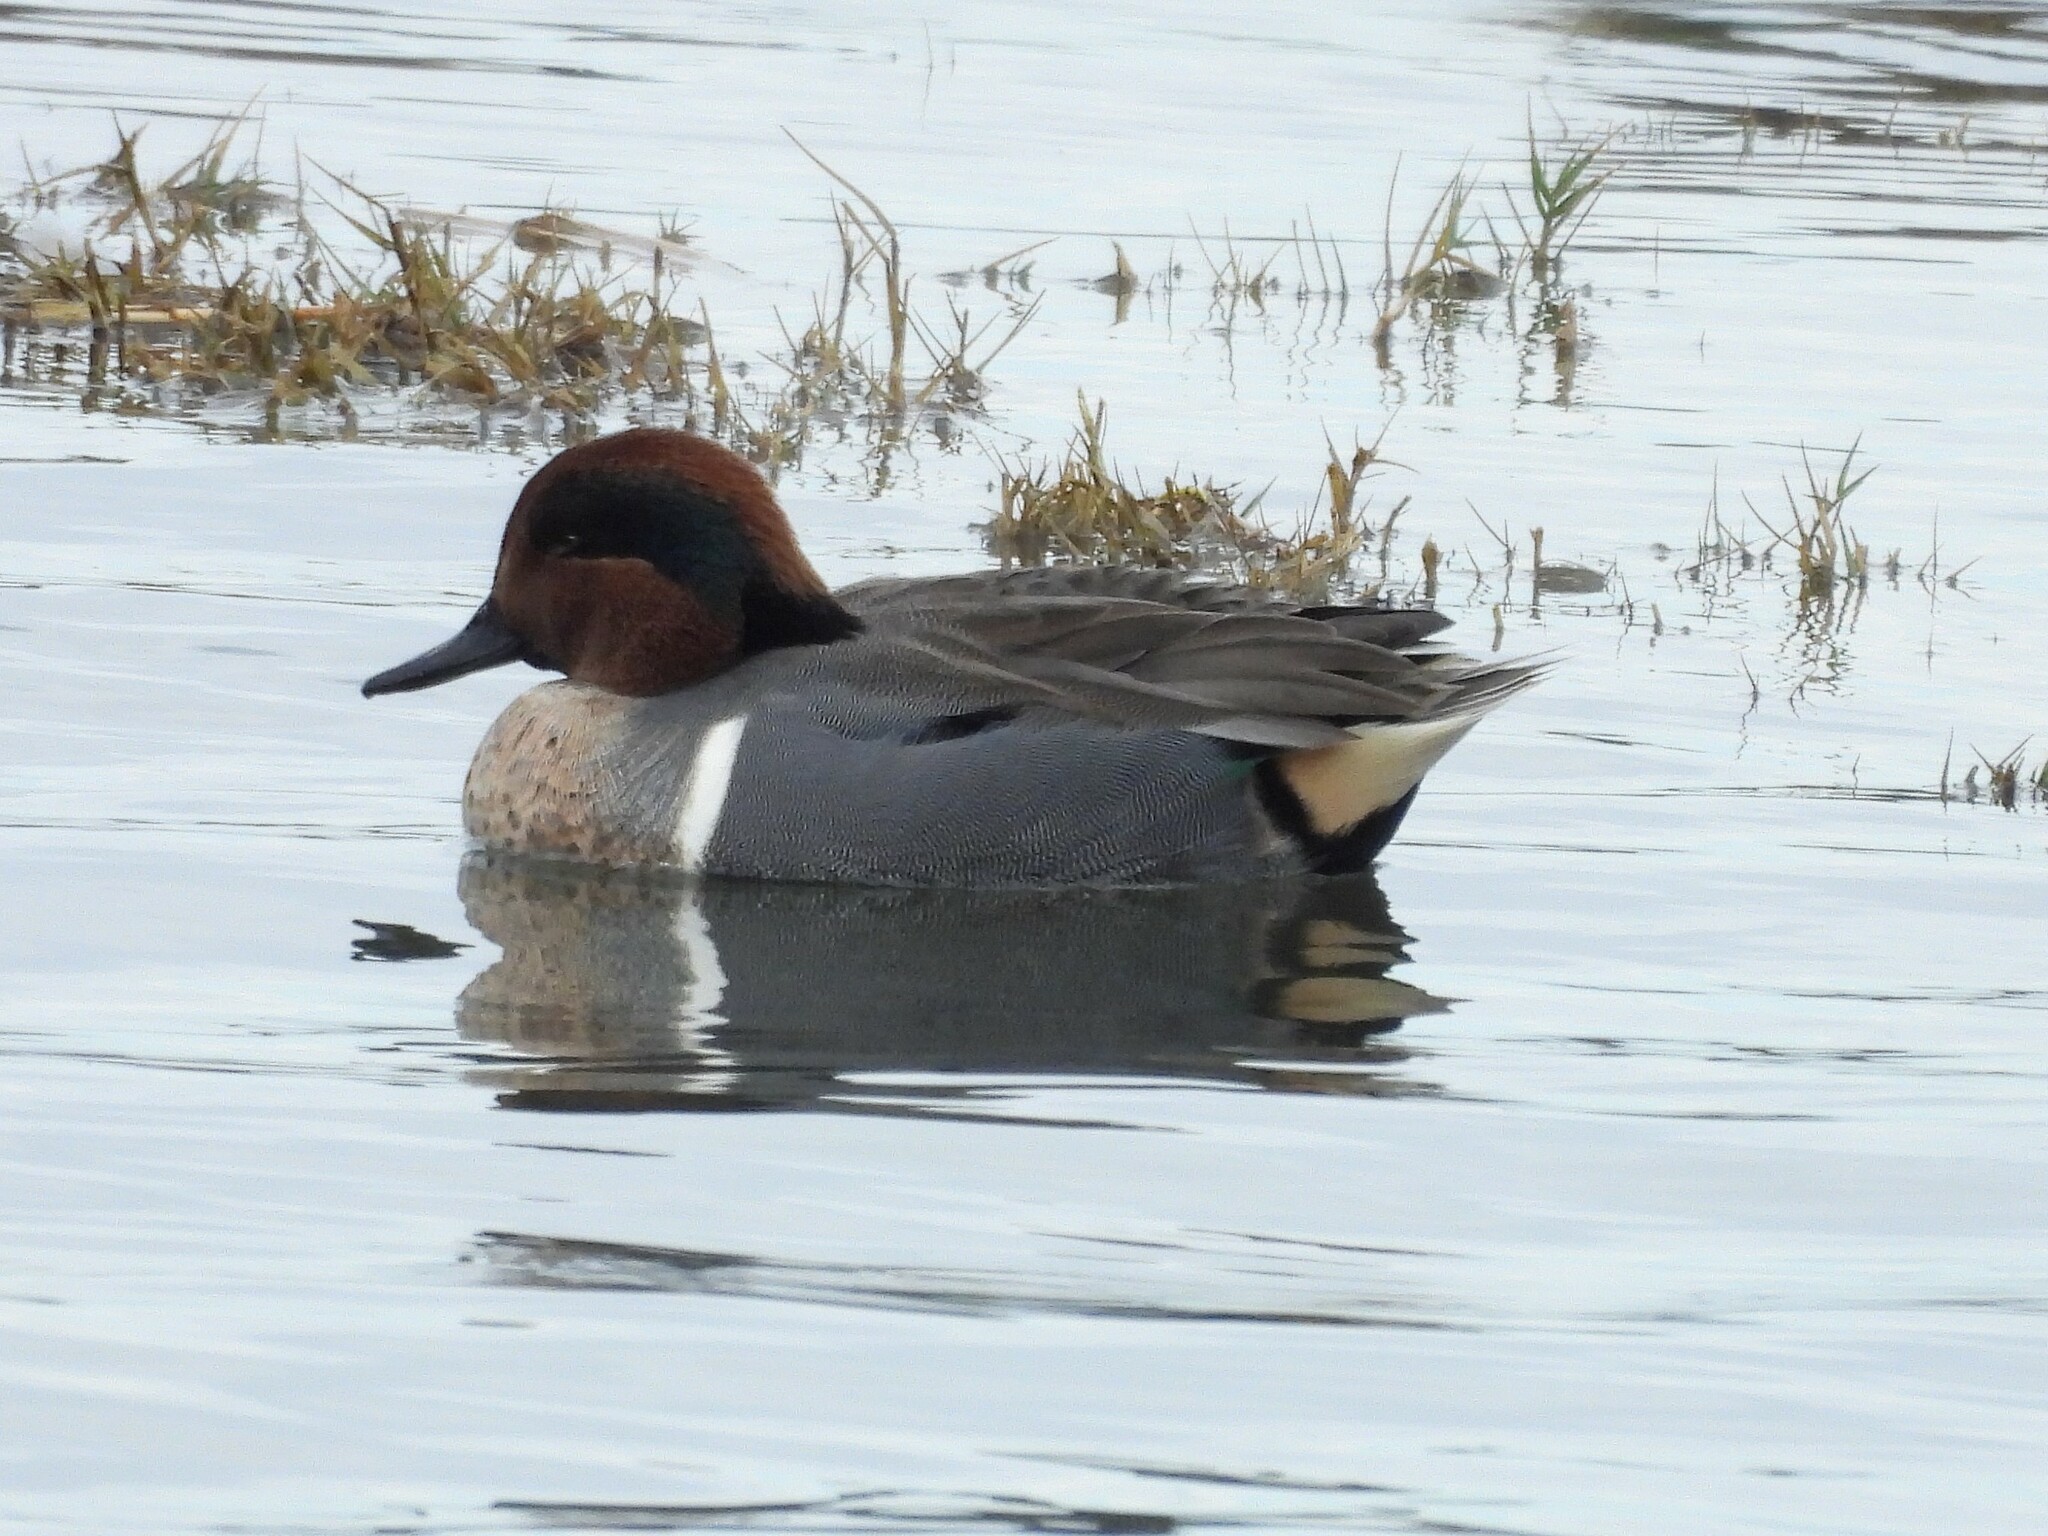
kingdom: Animalia
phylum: Chordata
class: Aves
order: Anseriformes
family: Anatidae
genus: Anas
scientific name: Anas crecca
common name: Eurasian teal
